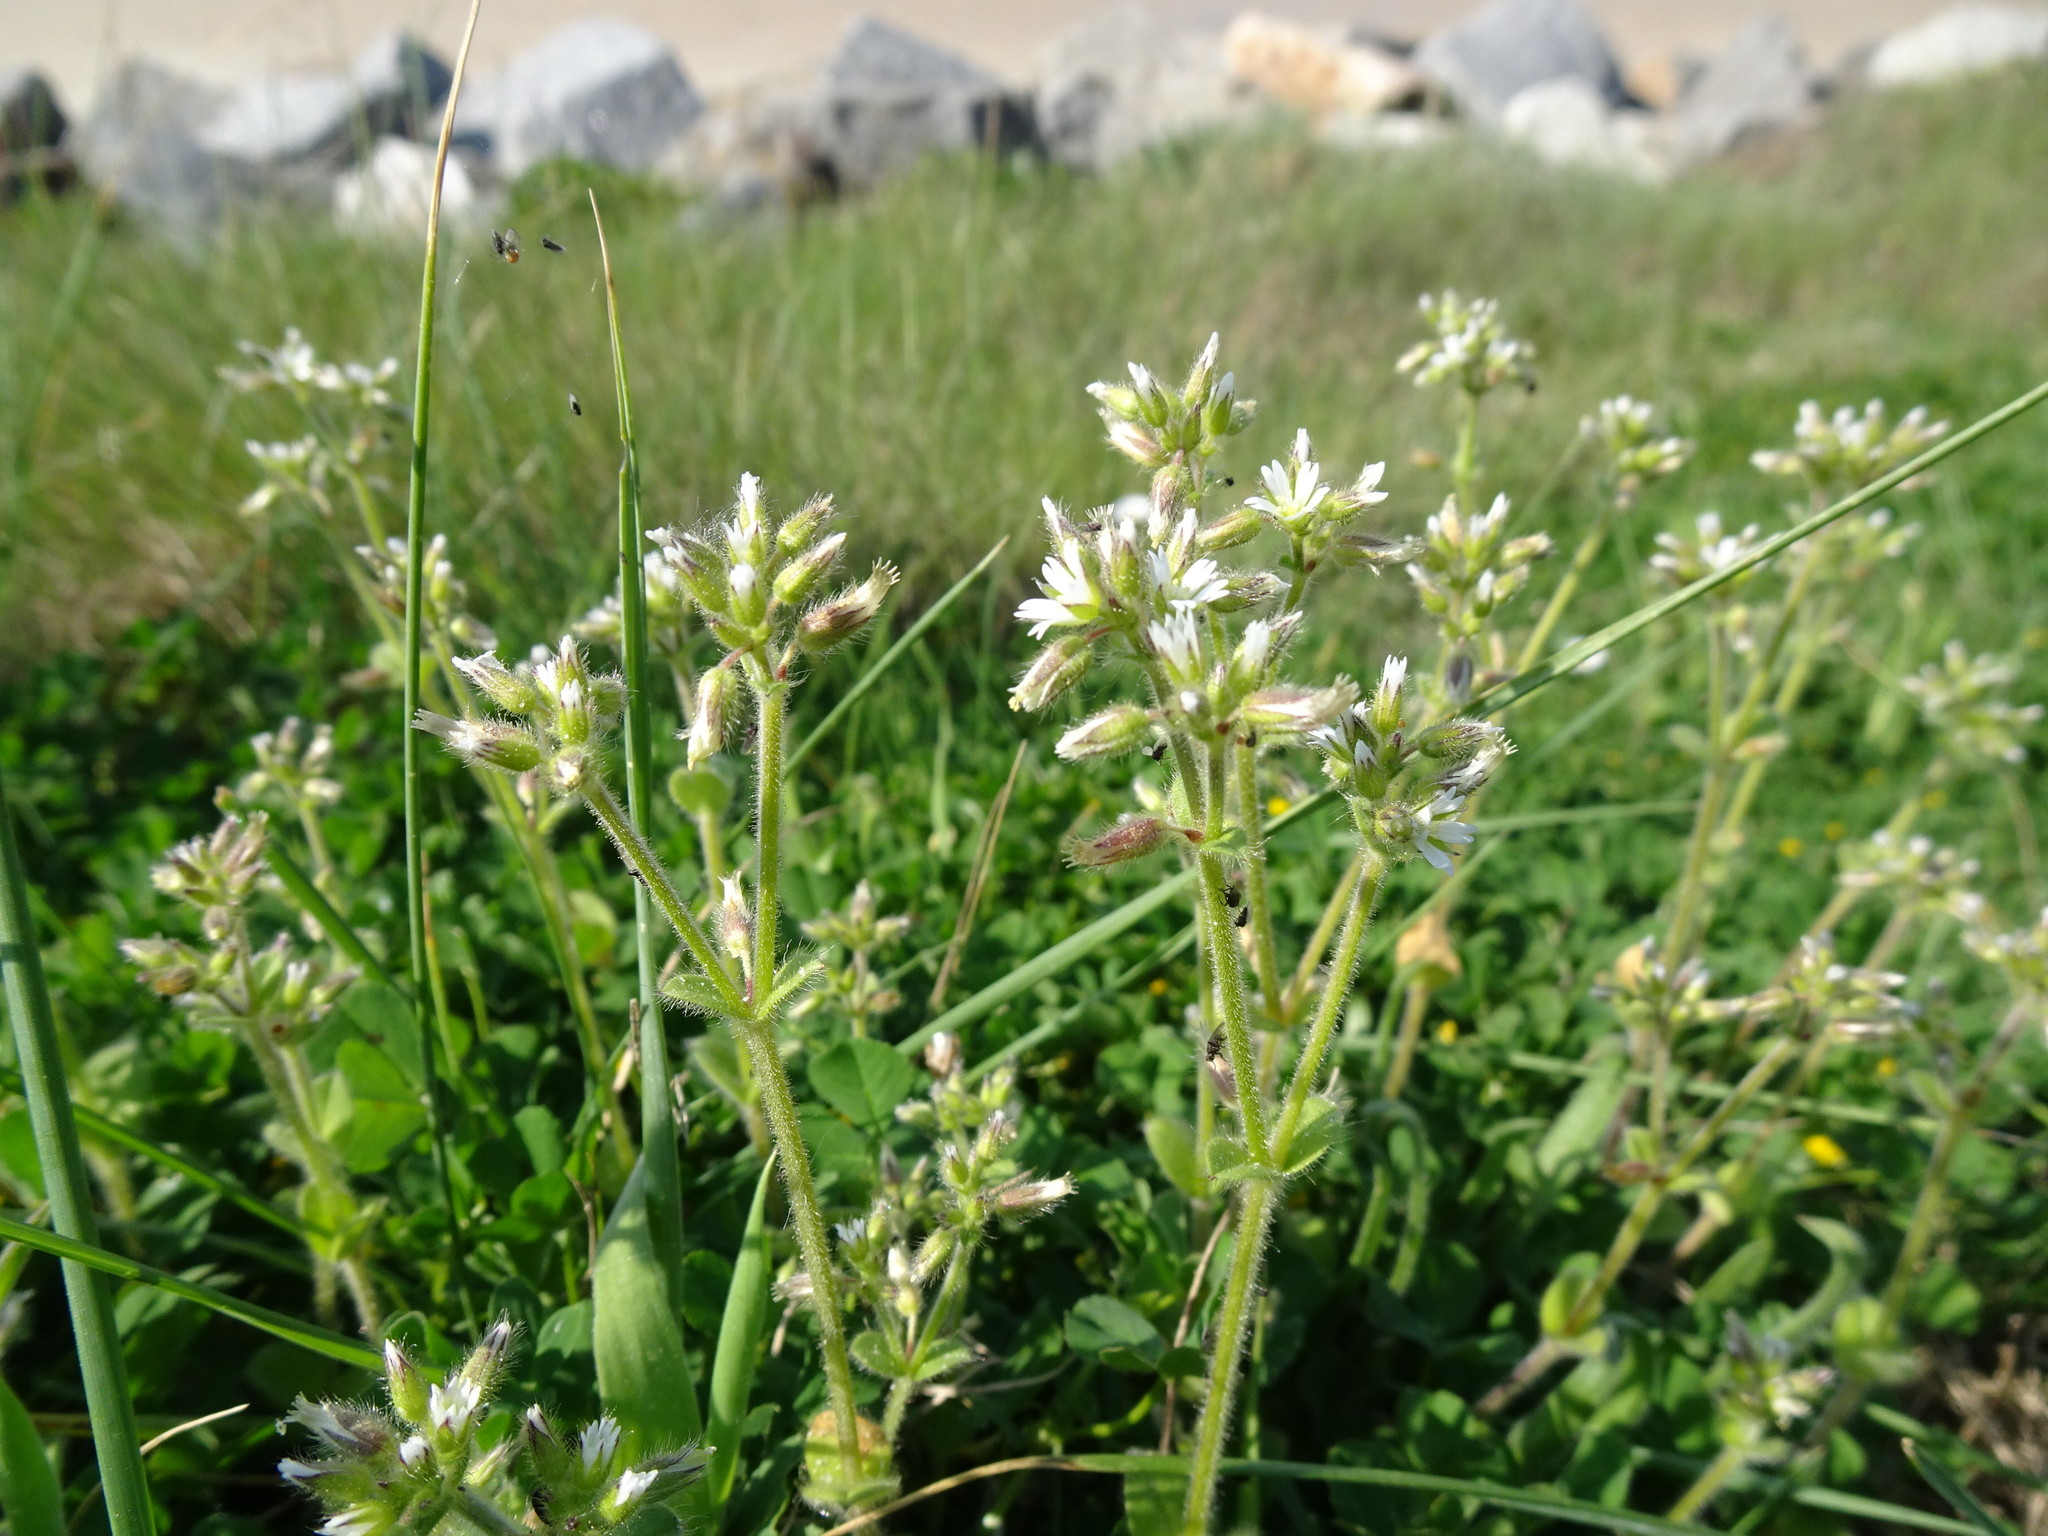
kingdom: Plantae
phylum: Tracheophyta
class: Magnoliopsida
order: Caryophyllales
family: Caryophyllaceae
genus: Cerastium
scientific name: Cerastium glomeratum
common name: Sticky chickweed
